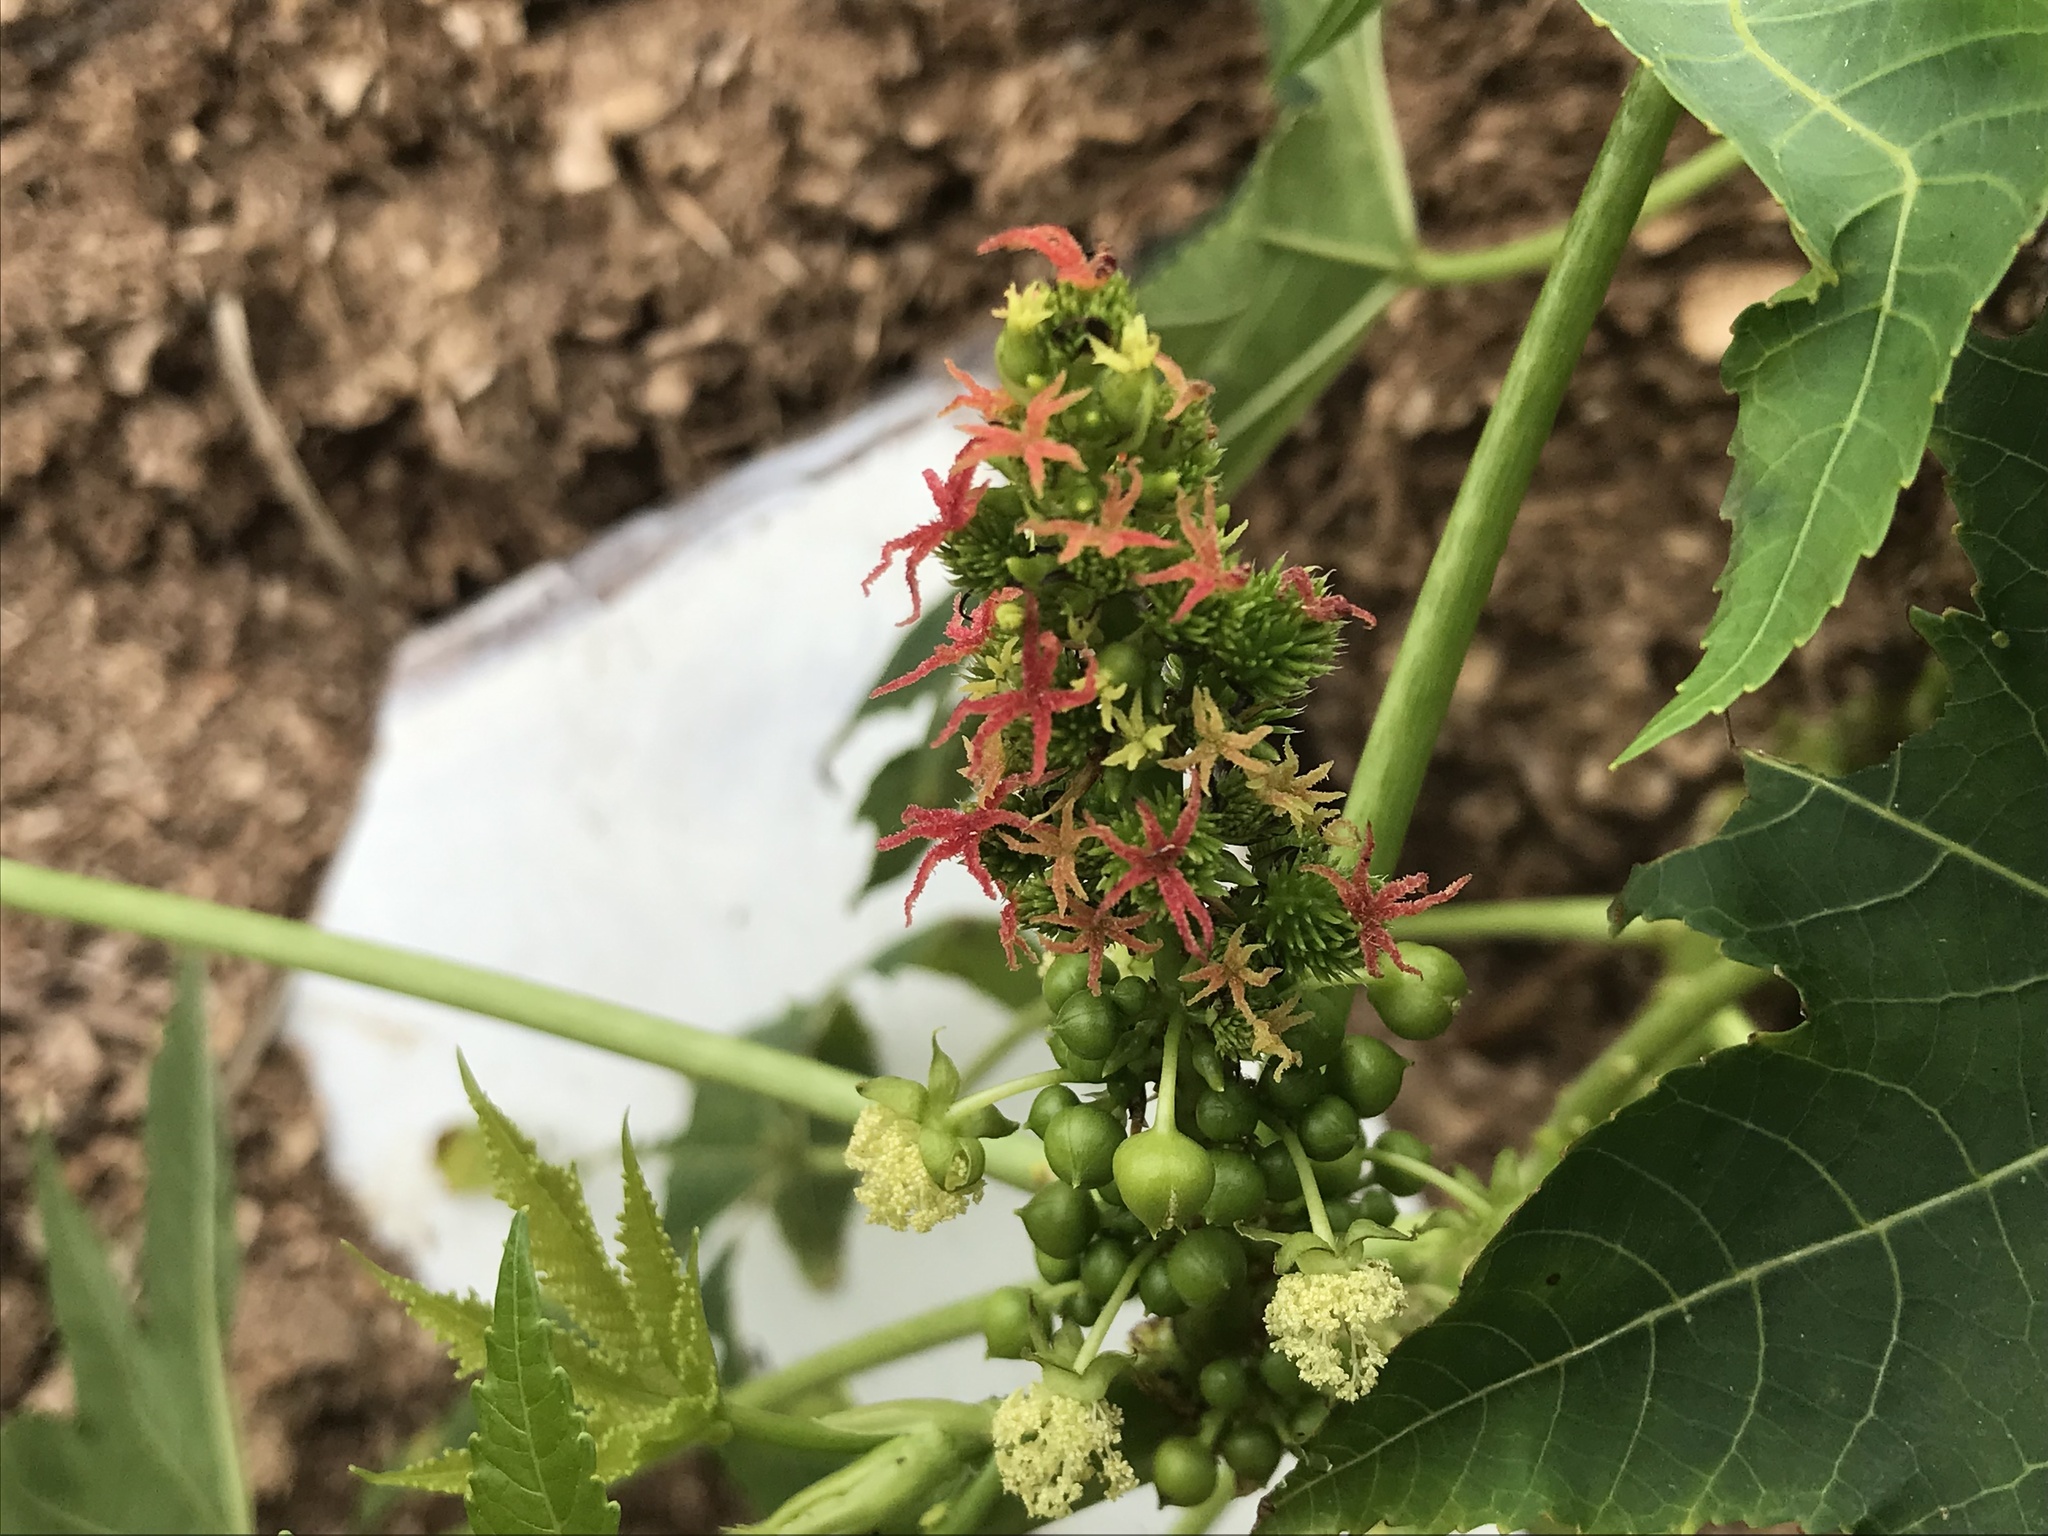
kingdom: Plantae
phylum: Tracheophyta
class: Magnoliopsida
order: Malpighiales
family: Euphorbiaceae
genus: Ricinus
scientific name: Ricinus communis
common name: Castor-oil-plant
